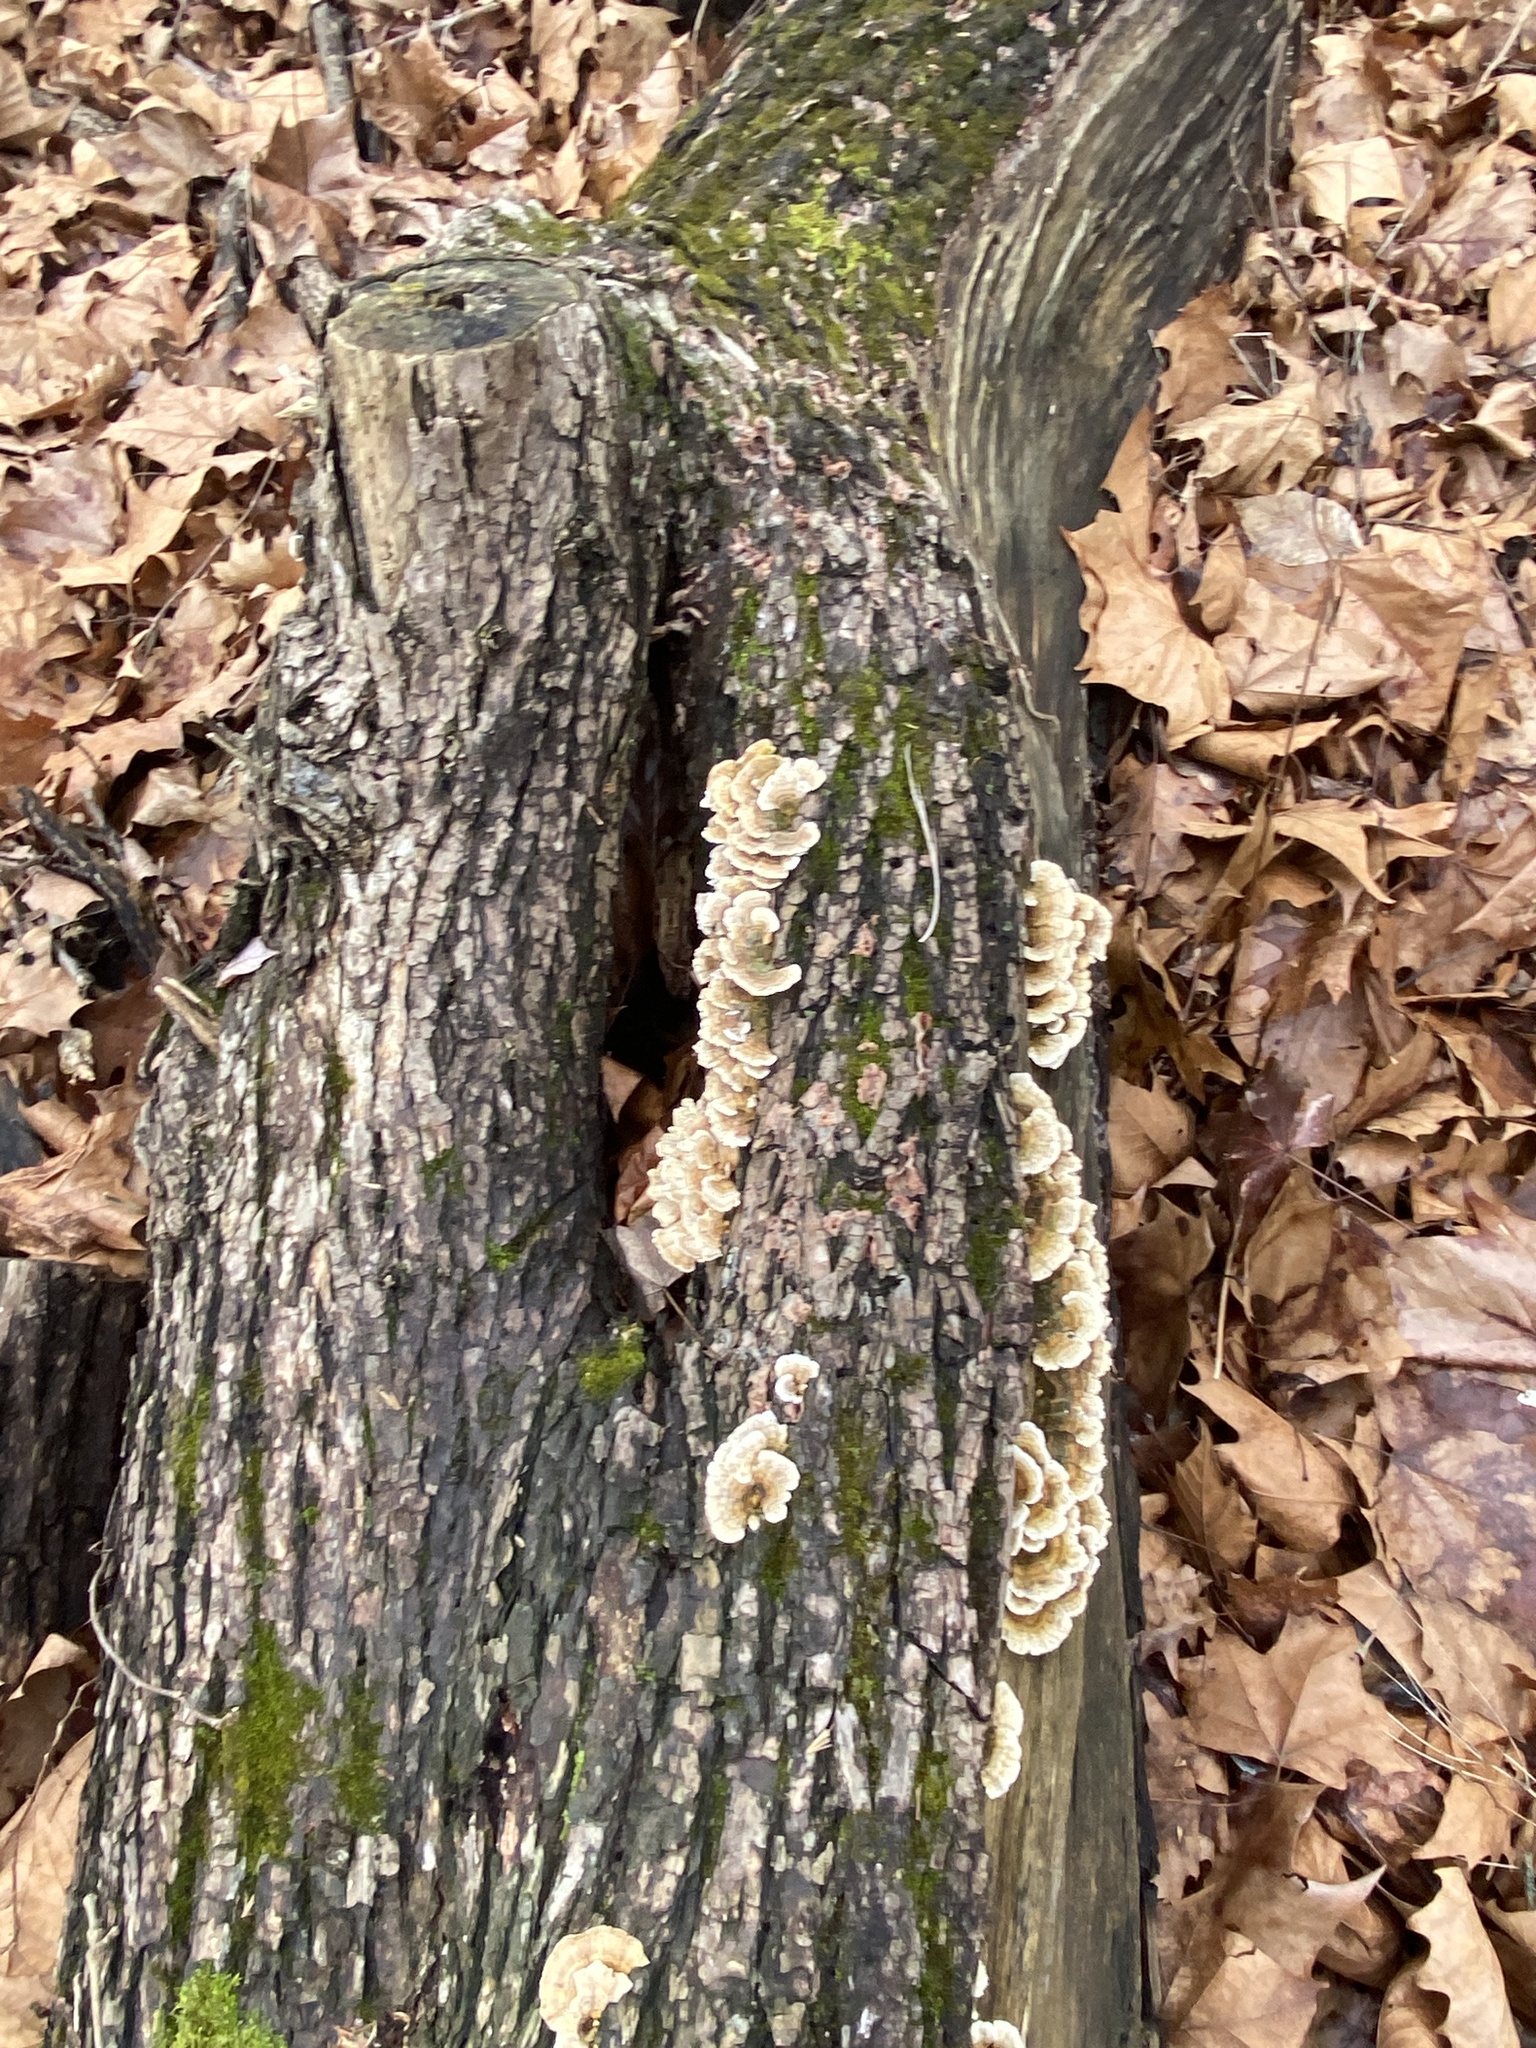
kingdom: Fungi
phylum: Basidiomycota
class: Agaricomycetes
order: Polyporales
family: Polyporaceae
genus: Trametes
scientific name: Trametes versicolor
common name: Turkeytail
